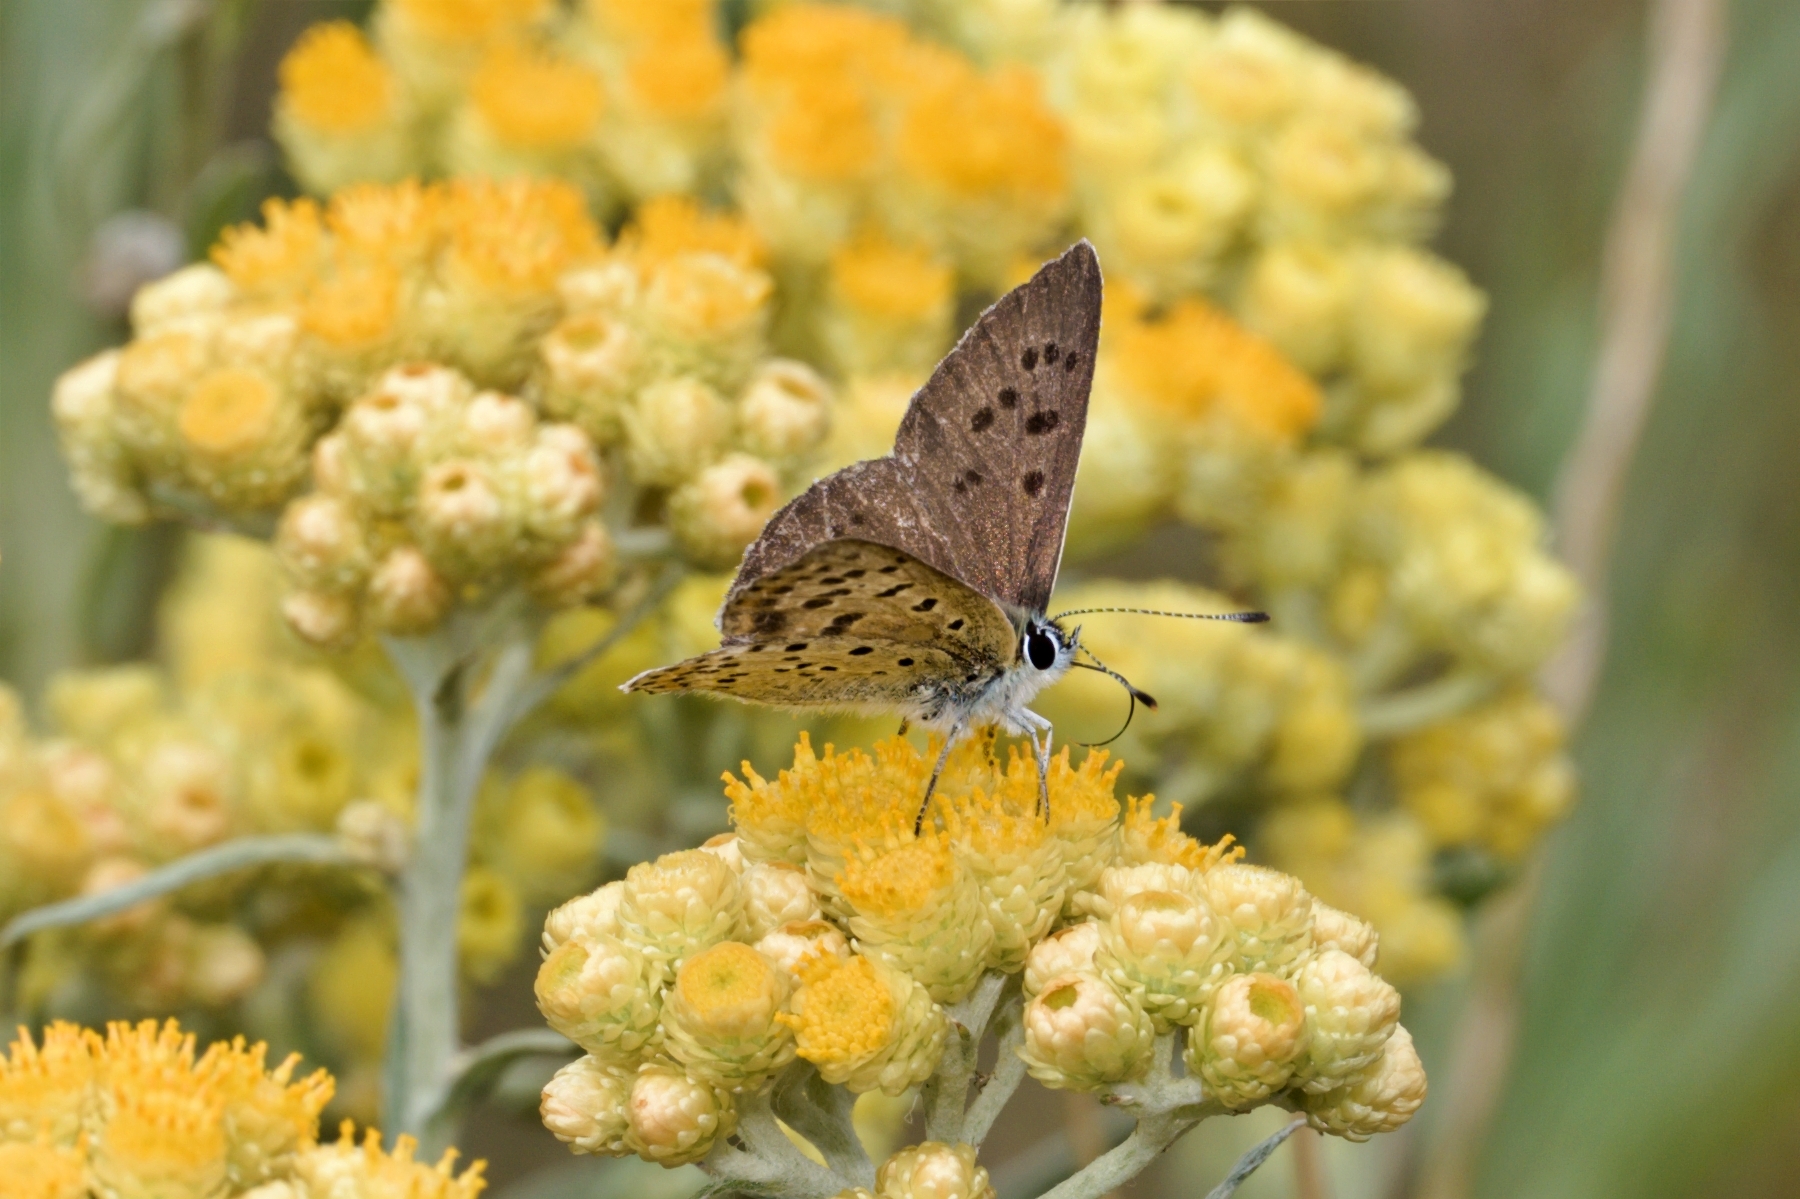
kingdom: Animalia
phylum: Arthropoda
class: Insecta
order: Lepidoptera
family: Lycaenidae
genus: Loweia
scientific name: Loweia tityrus
